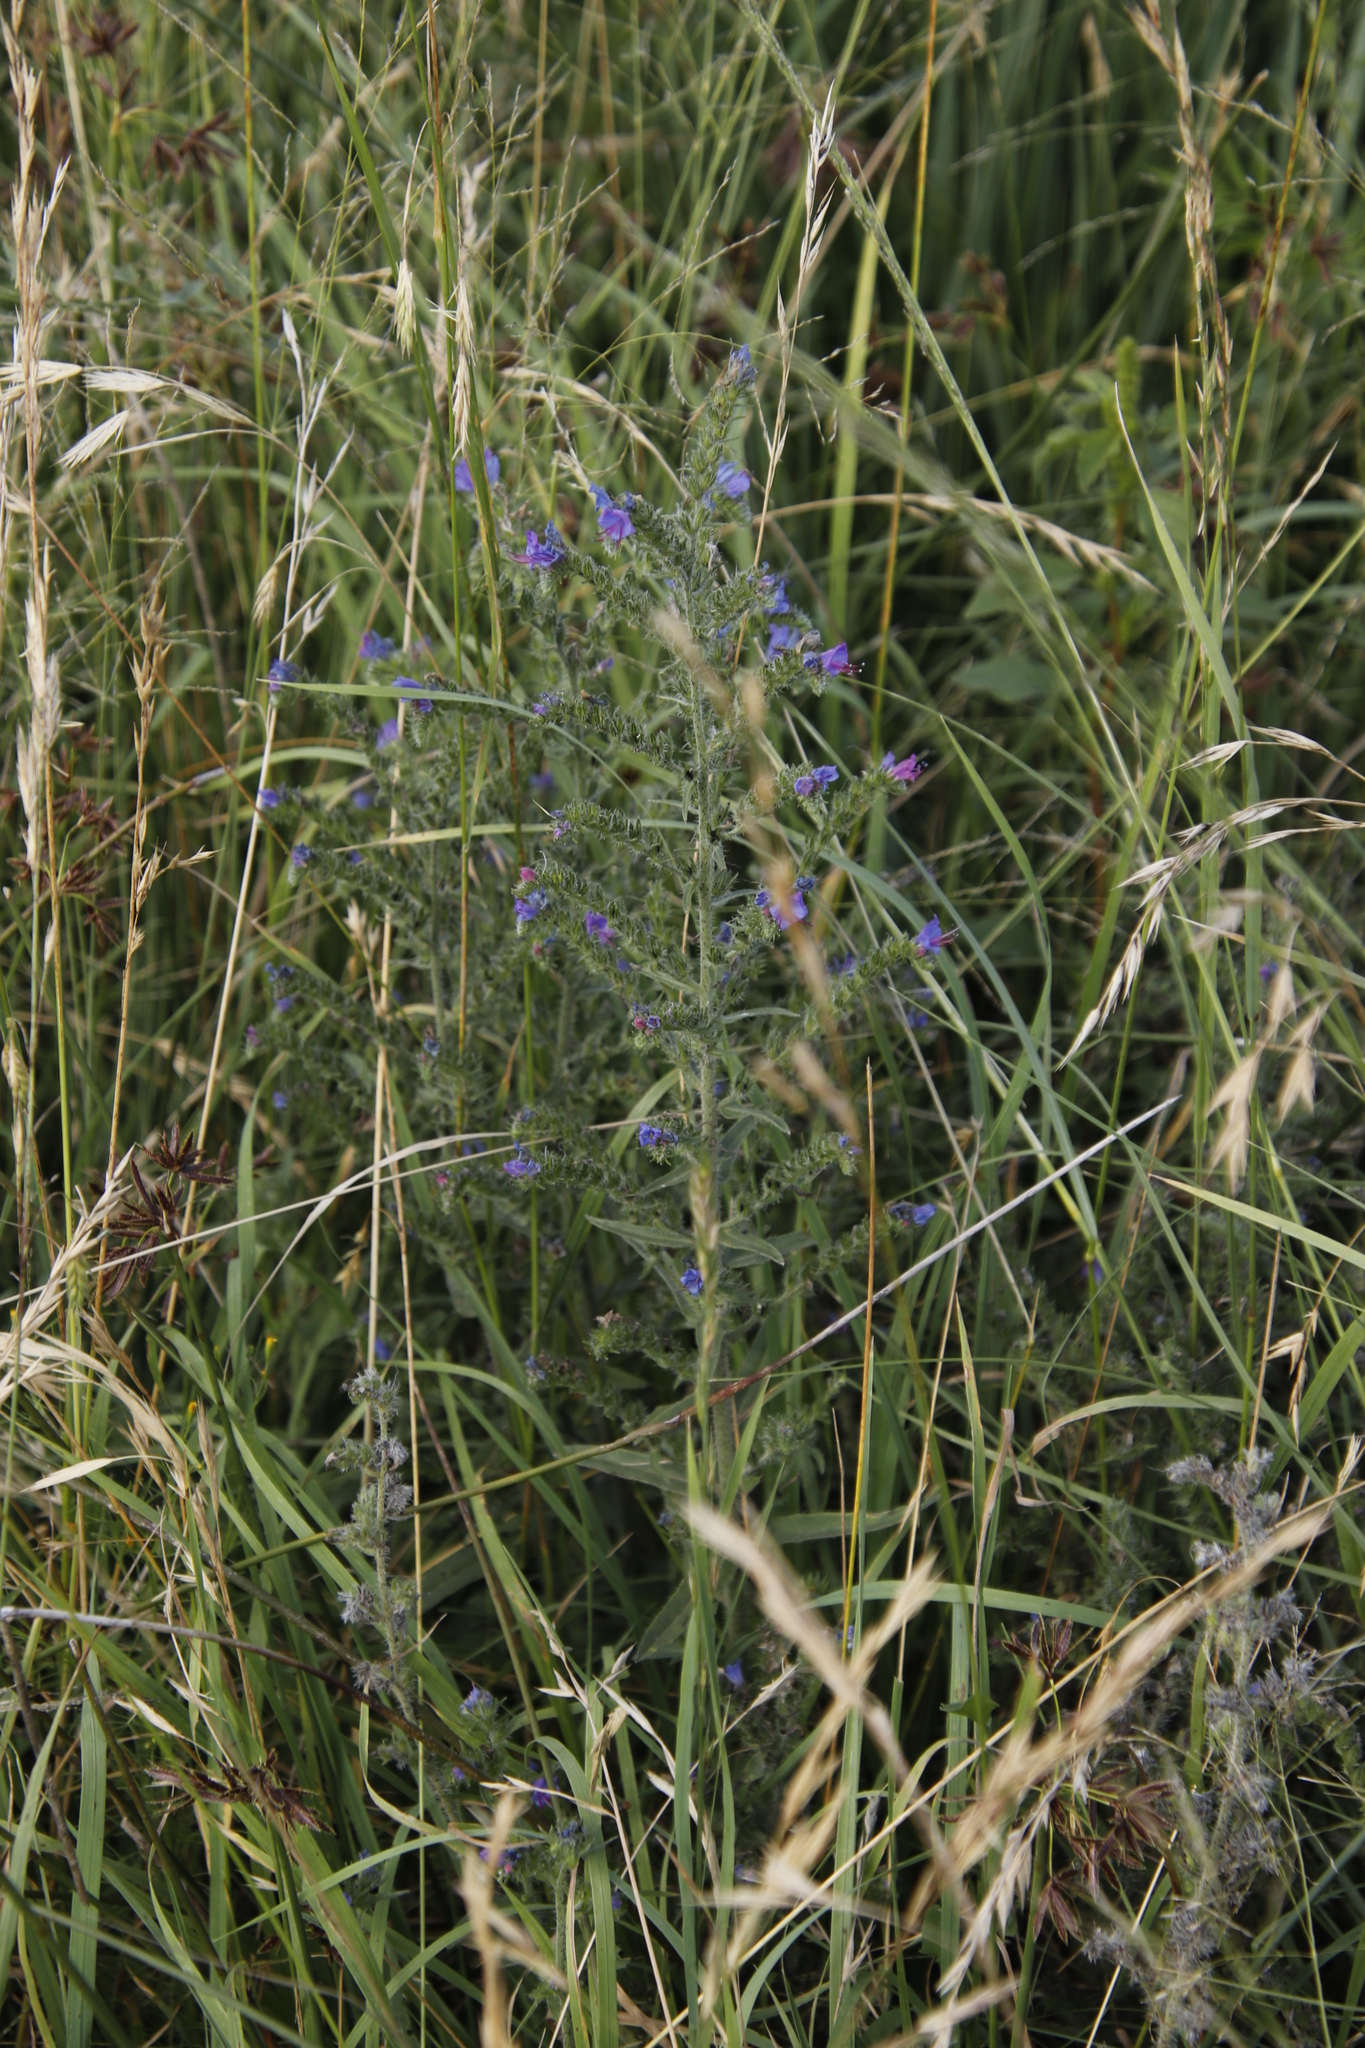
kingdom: Plantae
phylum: Tracheophyta
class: Magnoliopsida
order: Boraginales
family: Boraginaceae
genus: Echium
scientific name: Echium vulgare
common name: Common viper's bugloss
